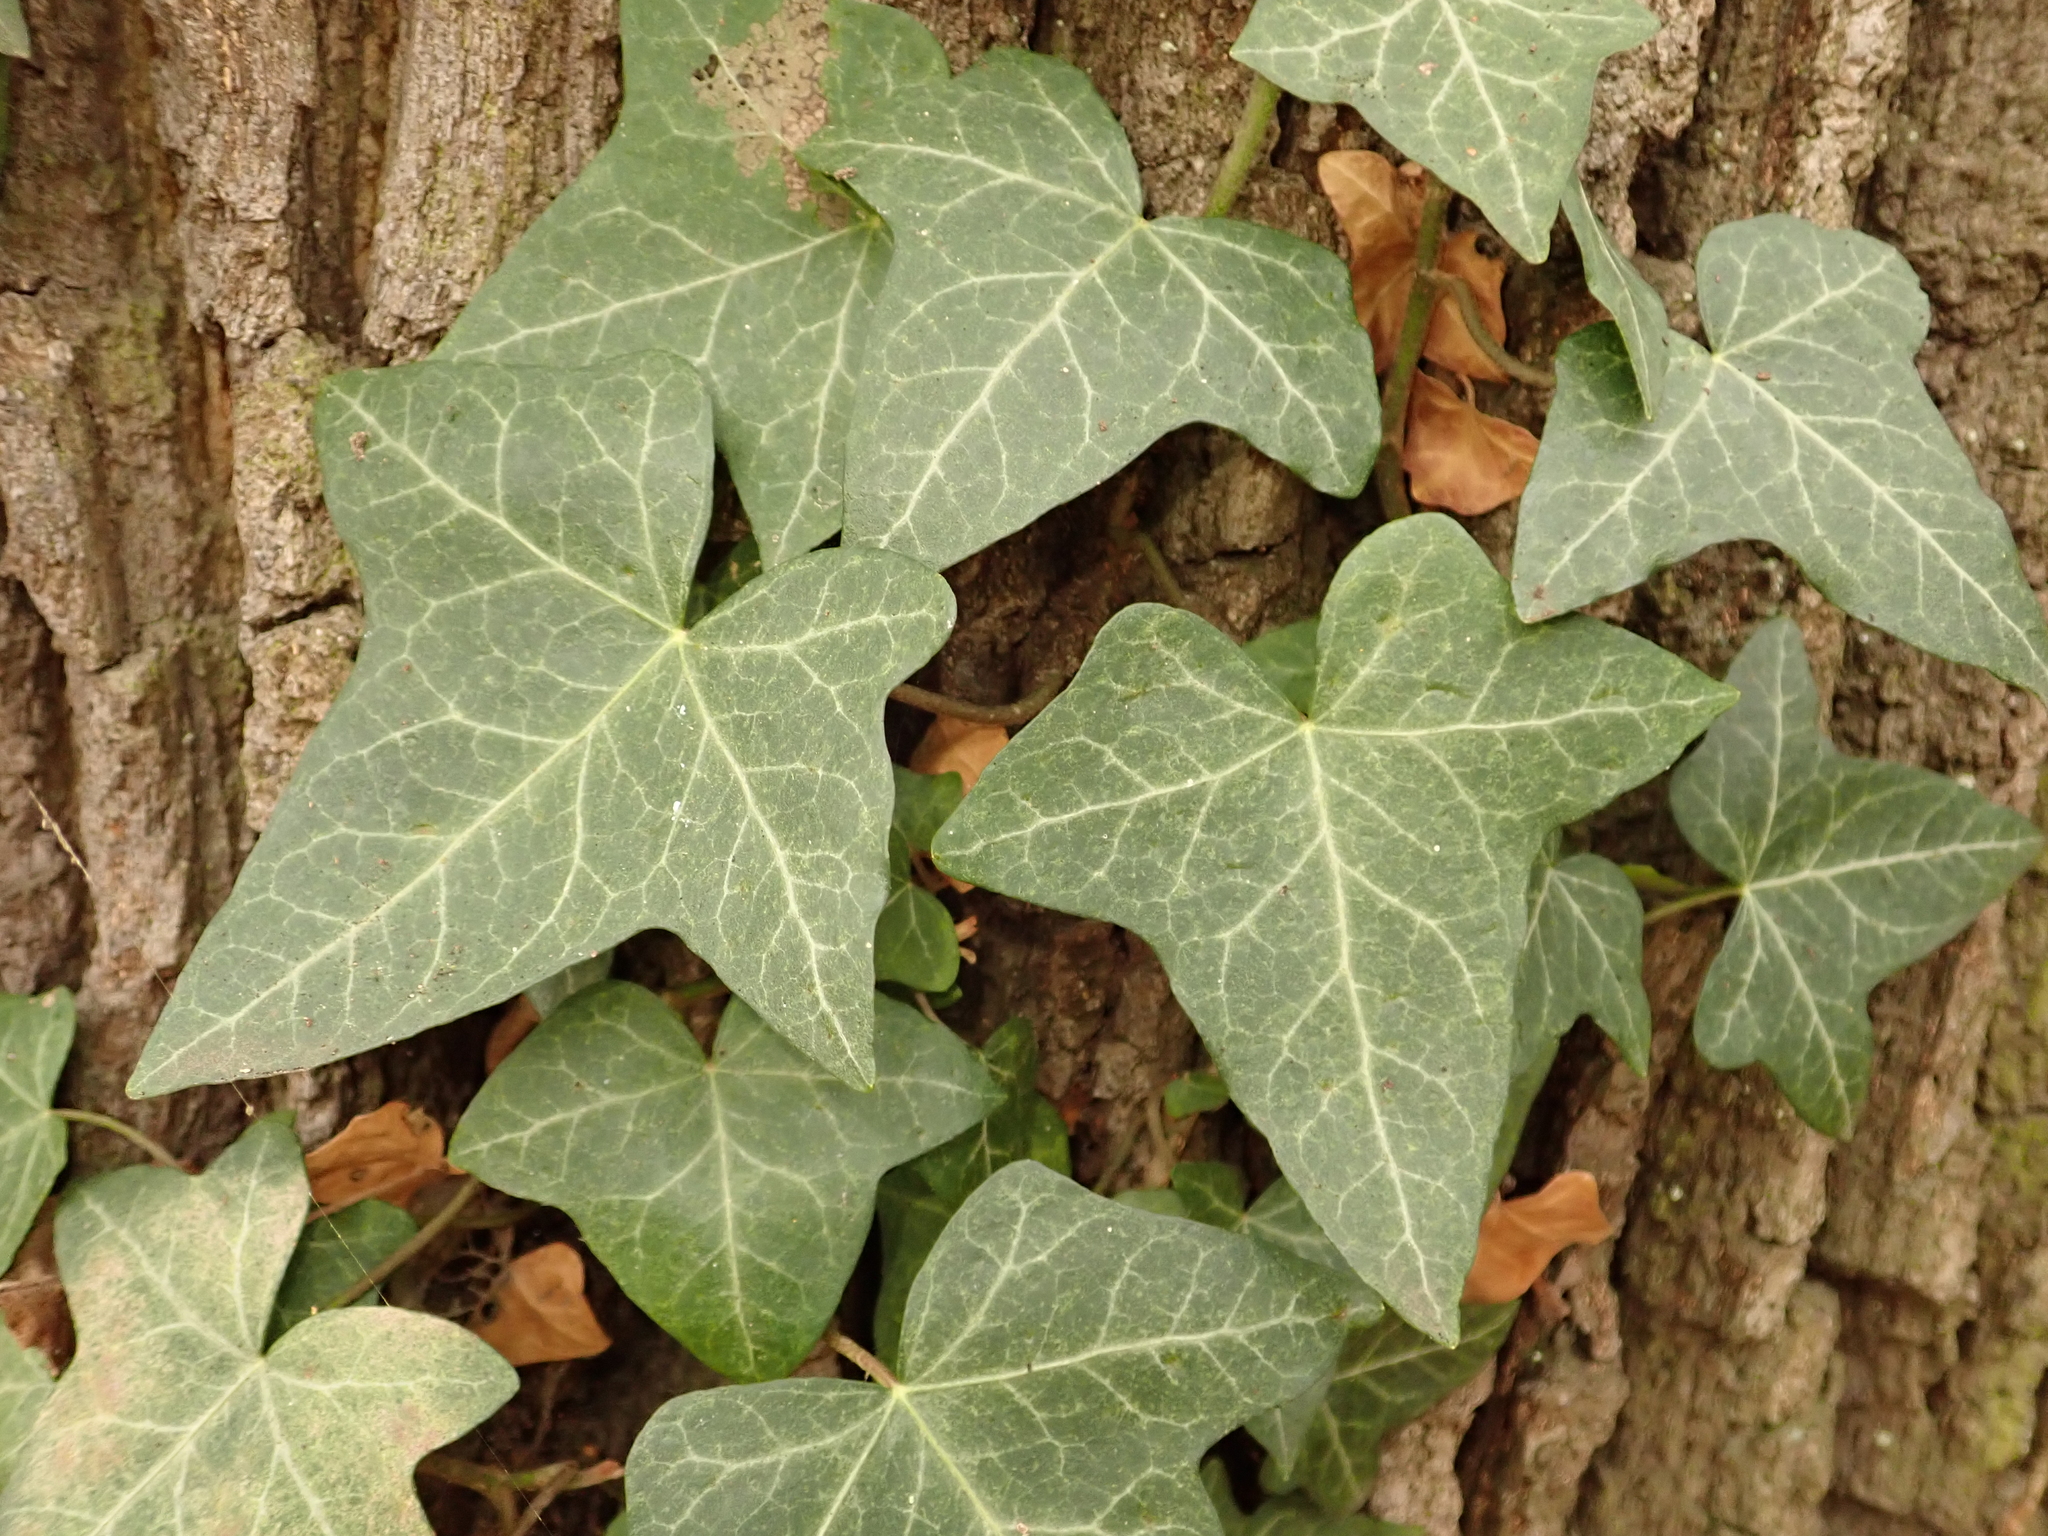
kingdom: Plantae
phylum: Tracheophyta
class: Magnoliopsida
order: Apiales
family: Araliaceae
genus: Hedera
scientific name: Hedera helix
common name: Ivy
